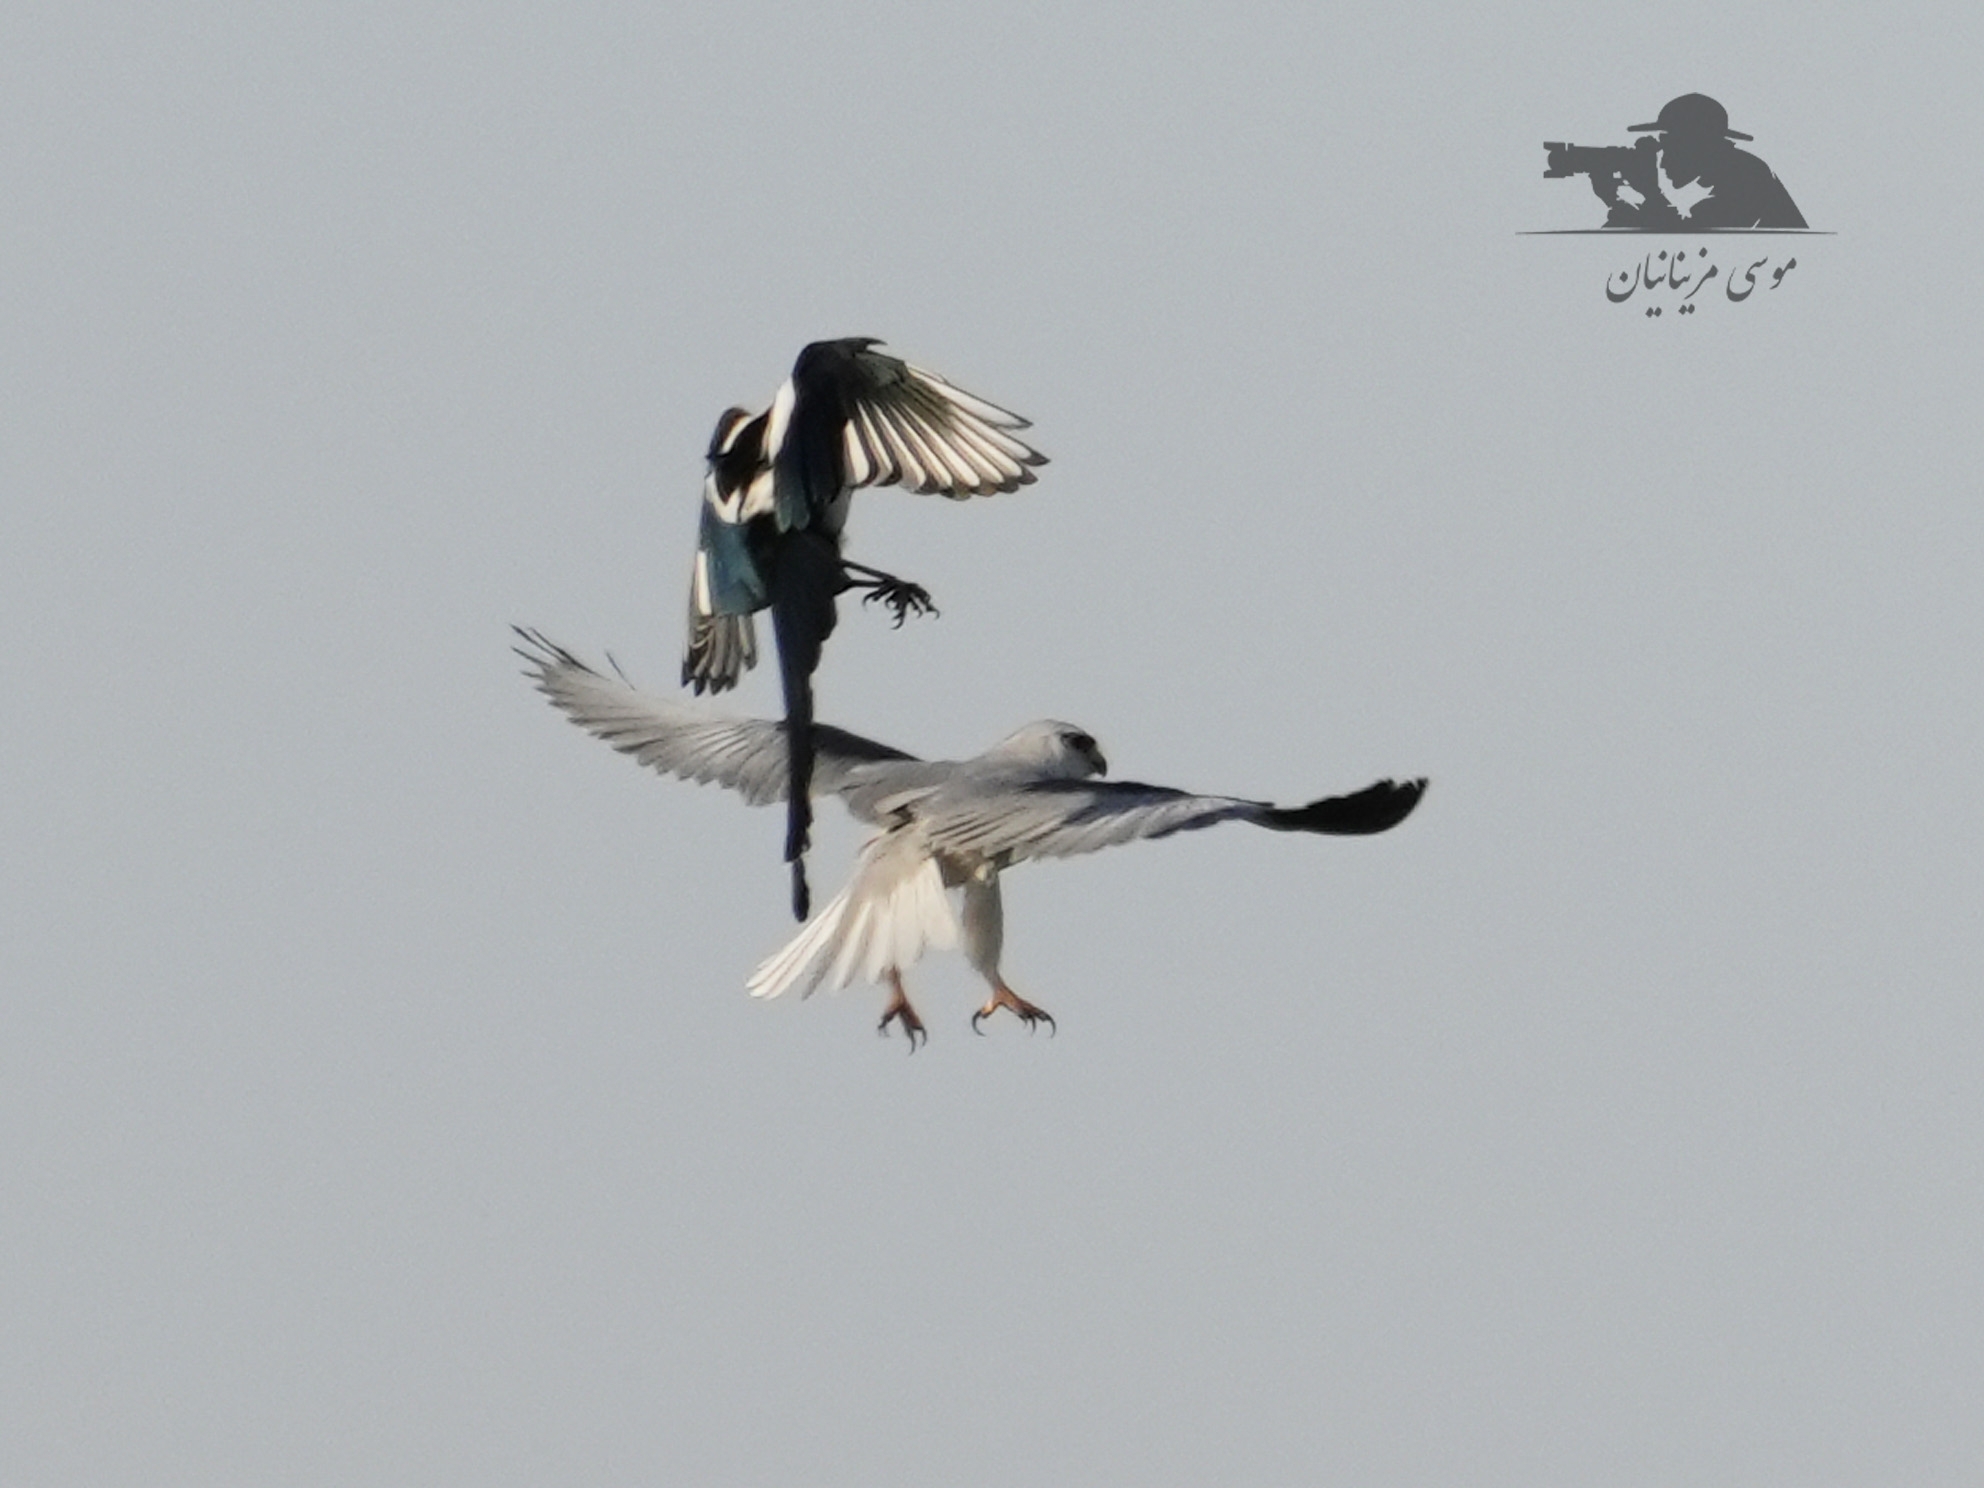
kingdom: Animalia
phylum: Chordata
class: Aves
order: Accipitriformes
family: Accipitridae
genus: Elanus
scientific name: Elanus caeruleus
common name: Black-winged kite
